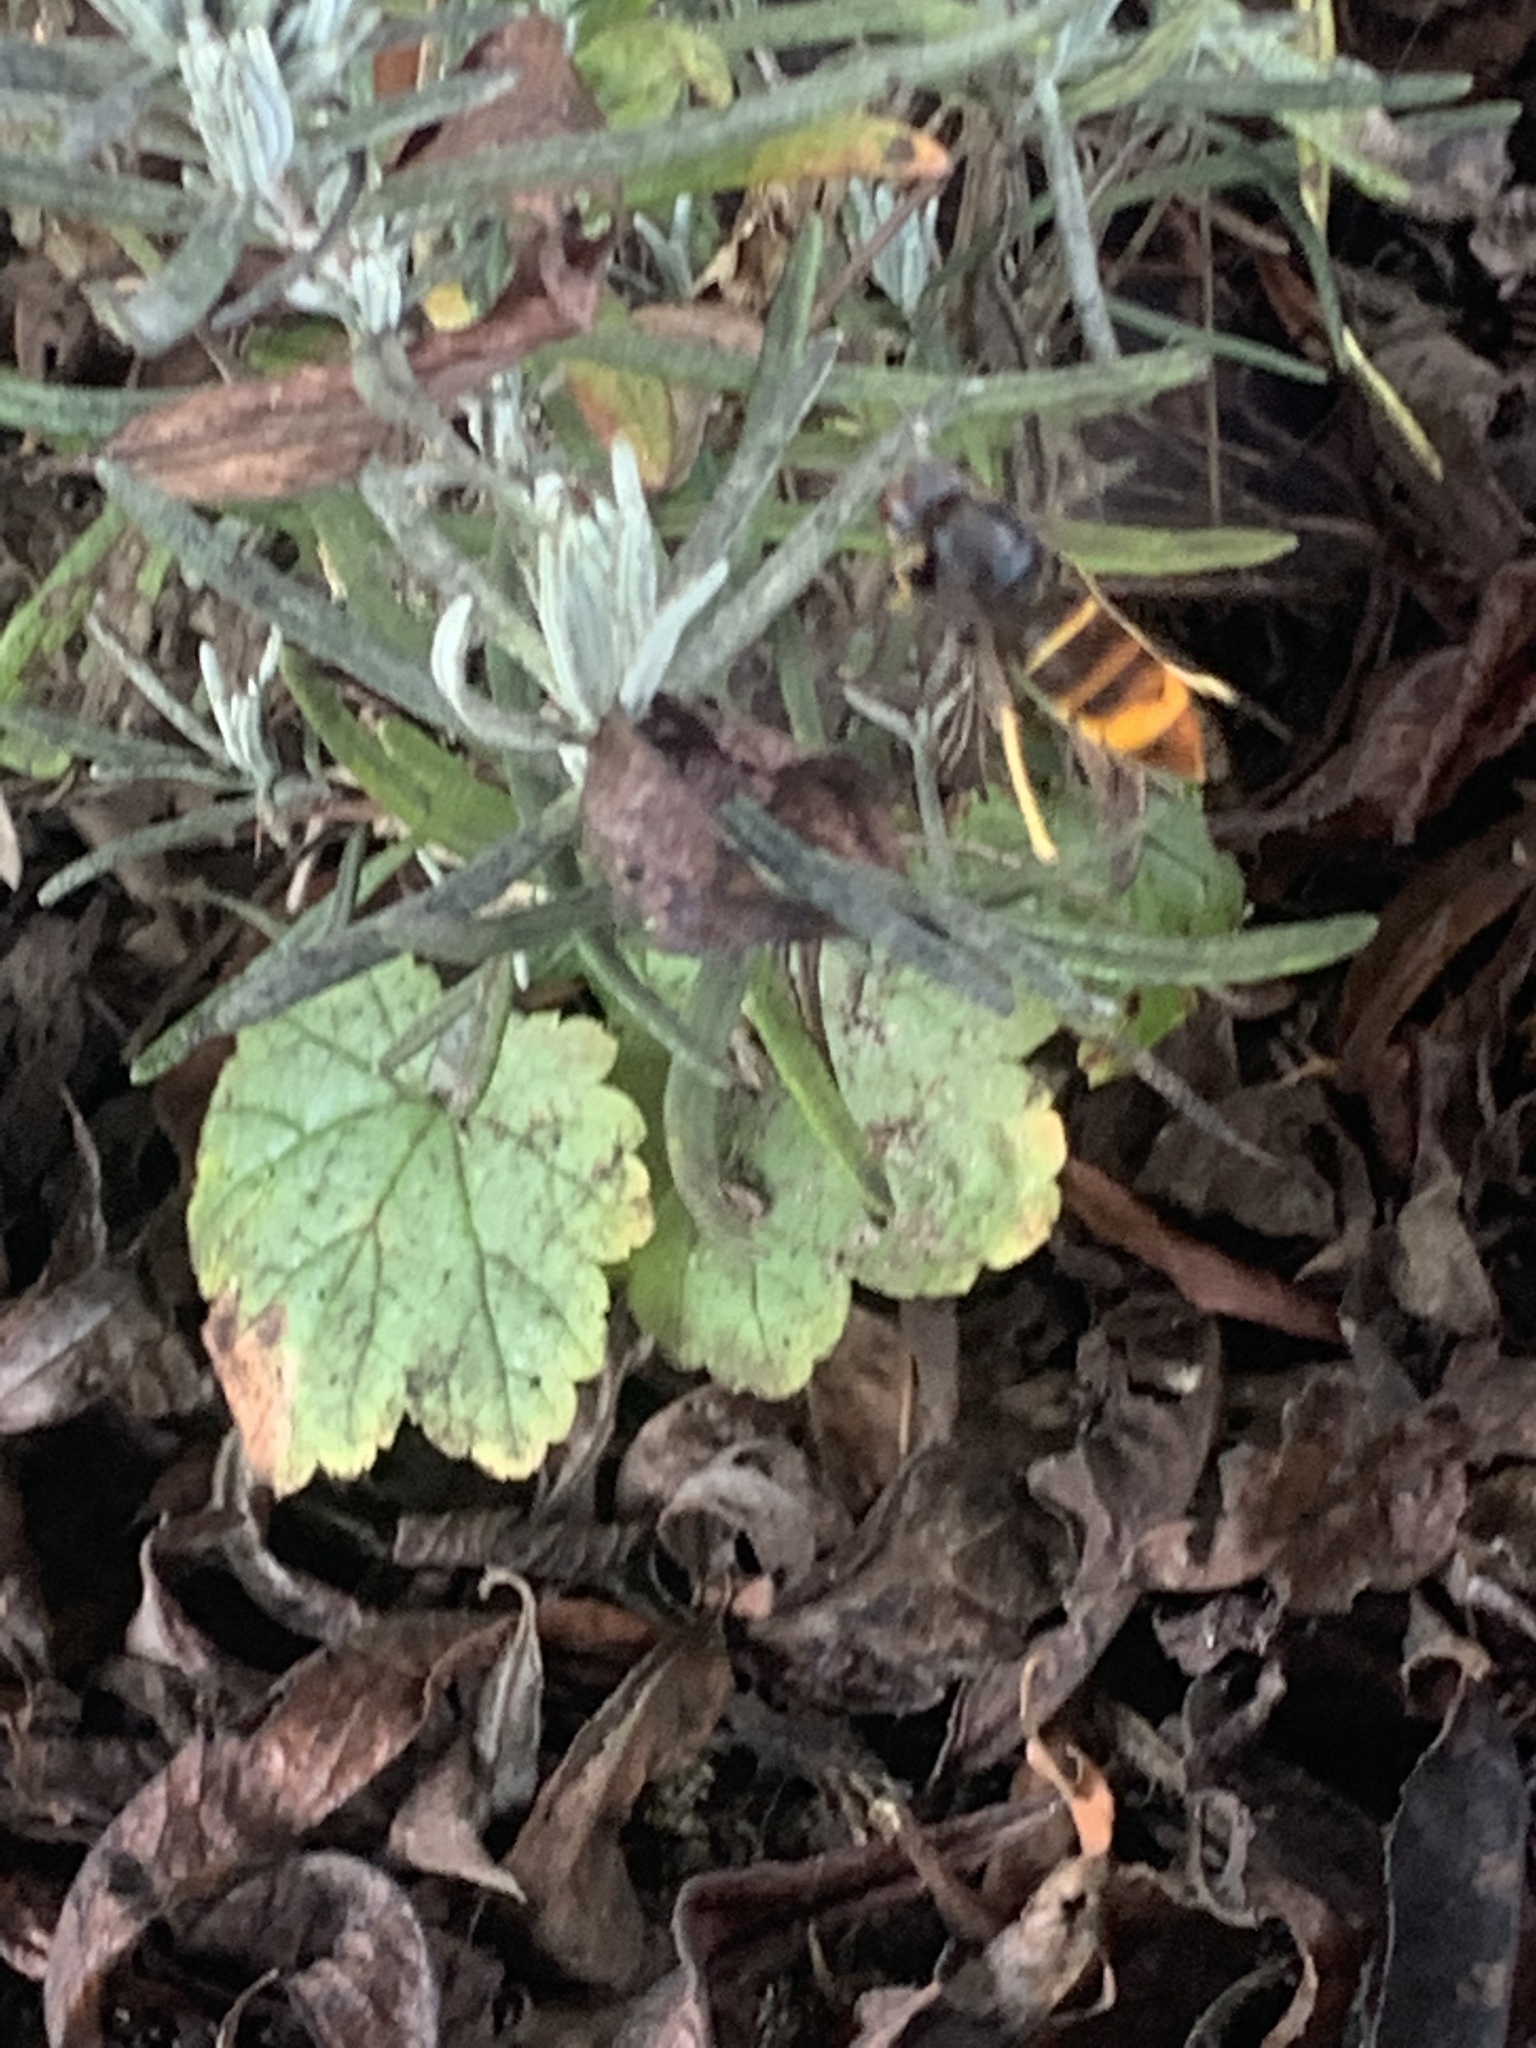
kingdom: Animalia
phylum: Arthropoda
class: Insecta
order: Hymenoptera
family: Vespidae
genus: Vespa
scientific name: Vespa velutina
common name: Asian hornet
